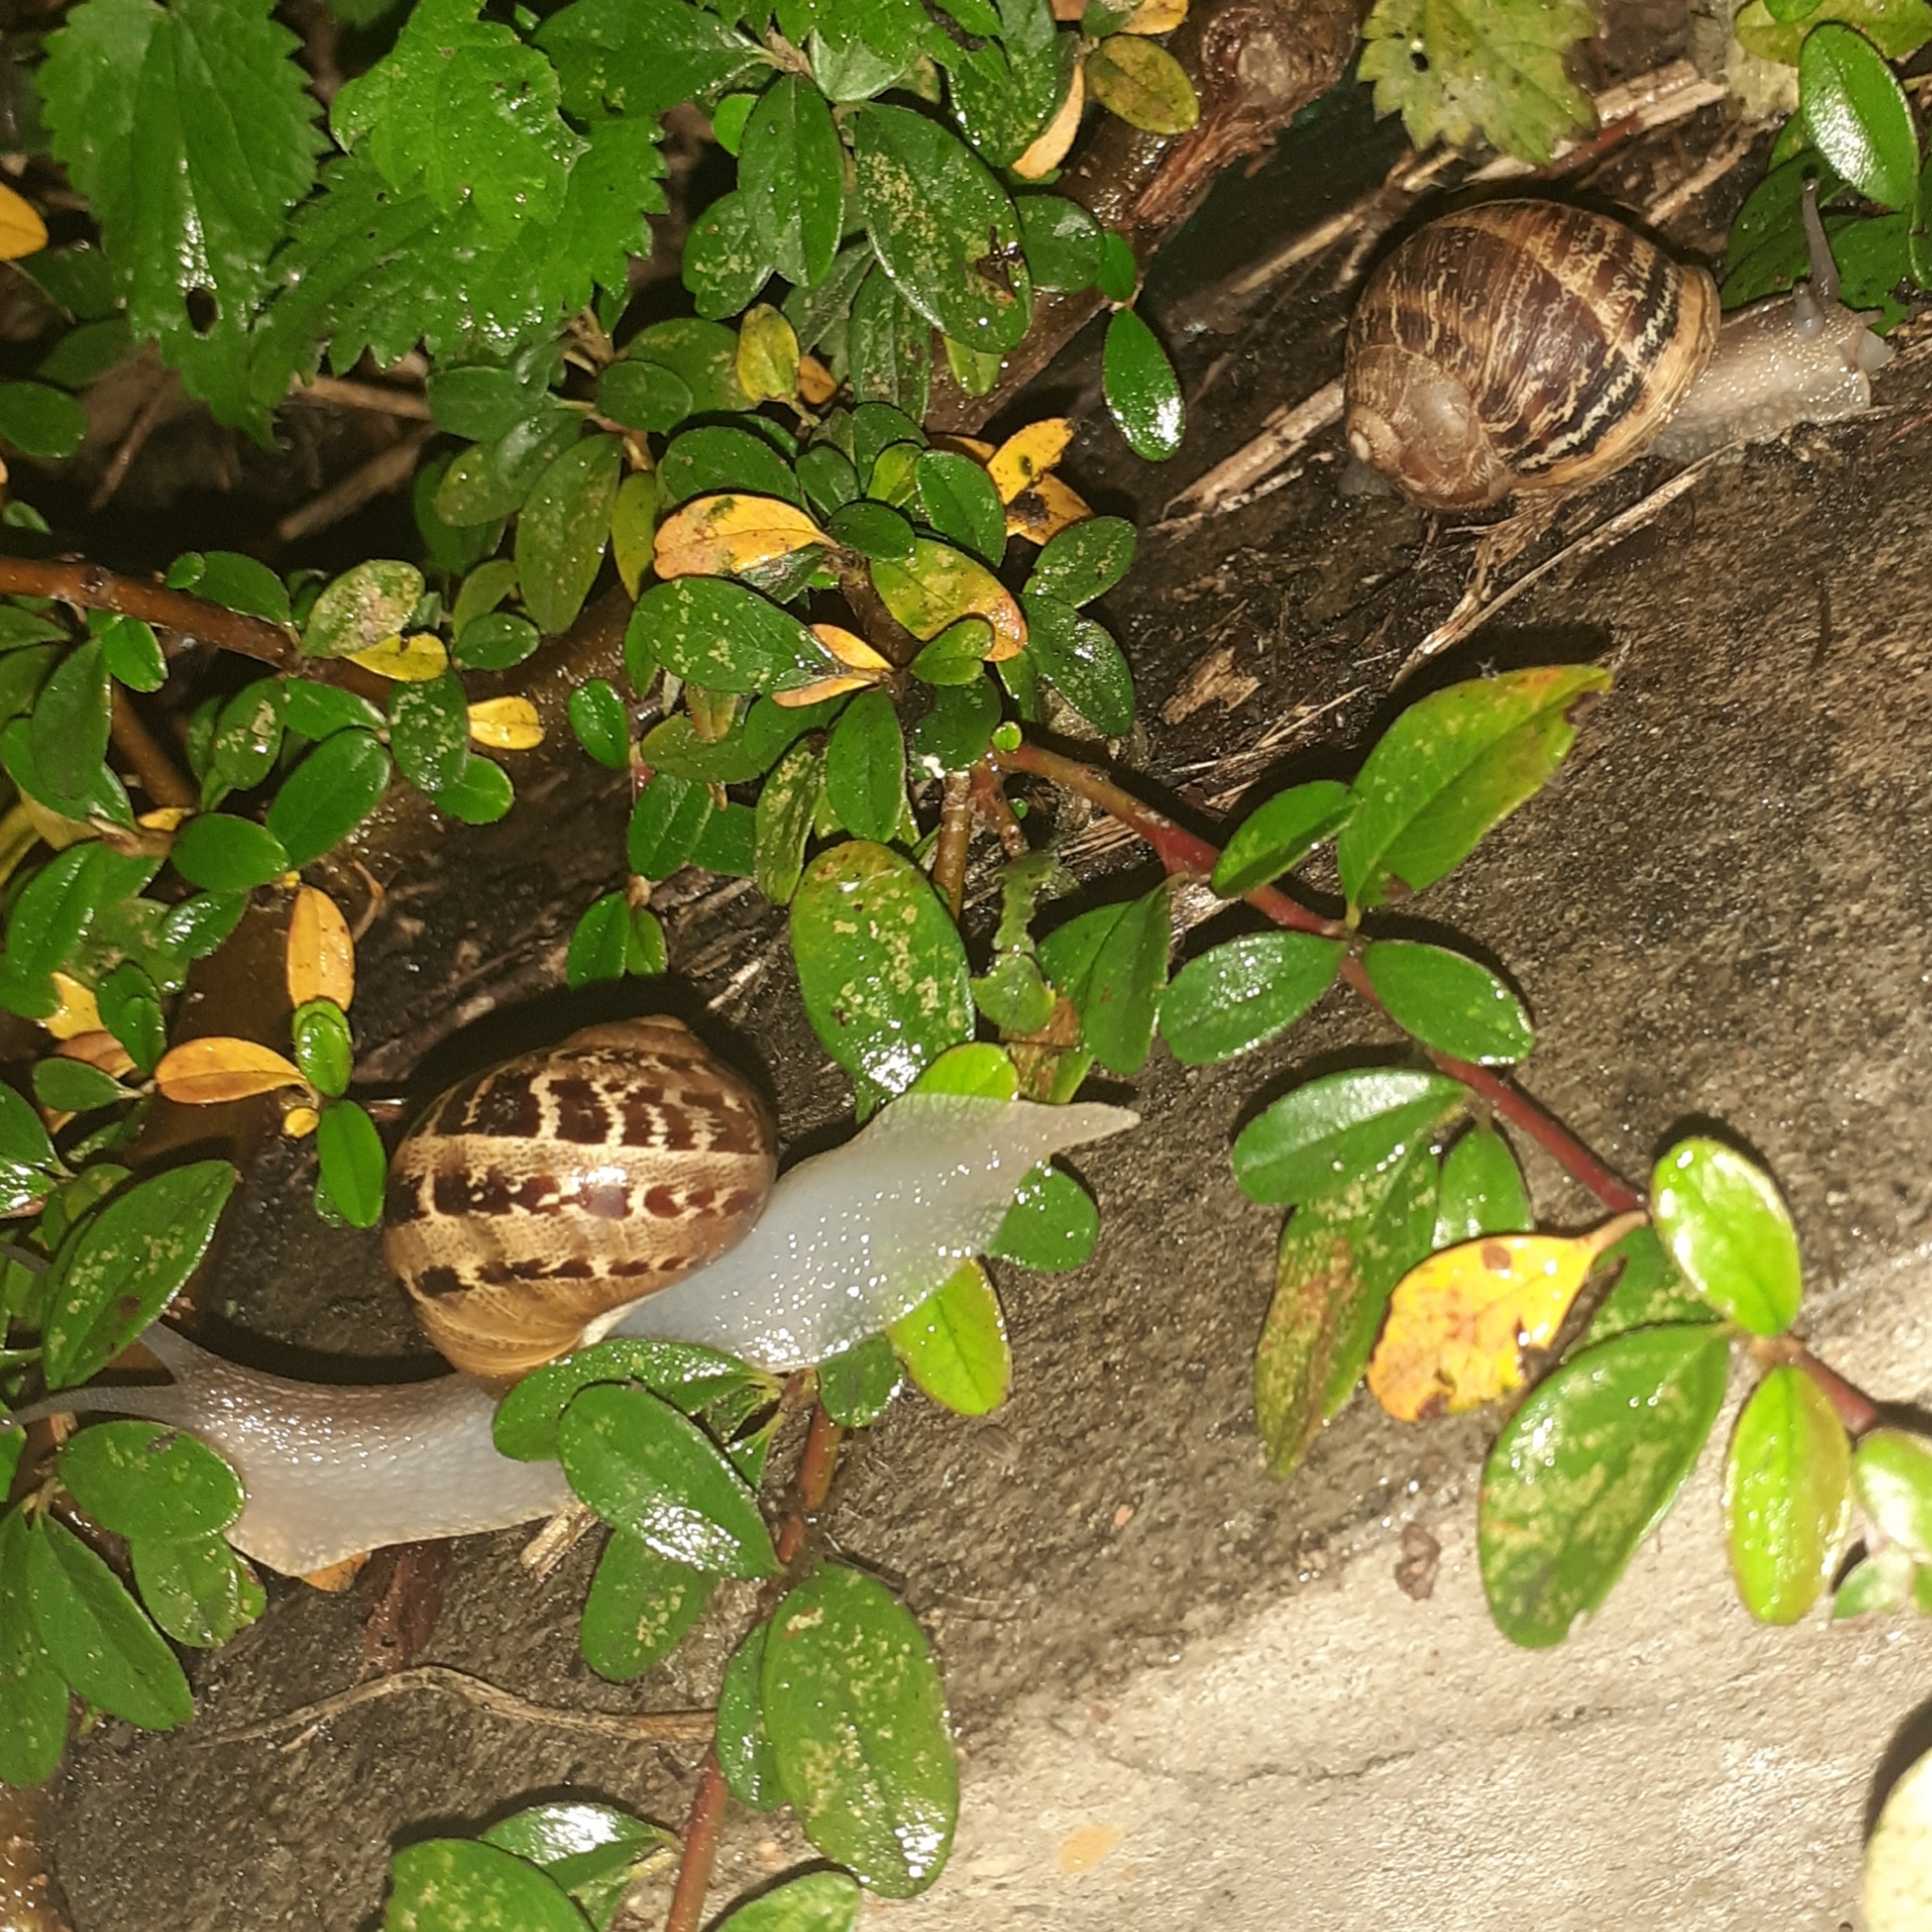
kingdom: Animalia
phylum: Mollusca
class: Gastropoda
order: Stylommatophora
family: Helicidae
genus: Cornu
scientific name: Cornu aspersum
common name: Brown garden snail
